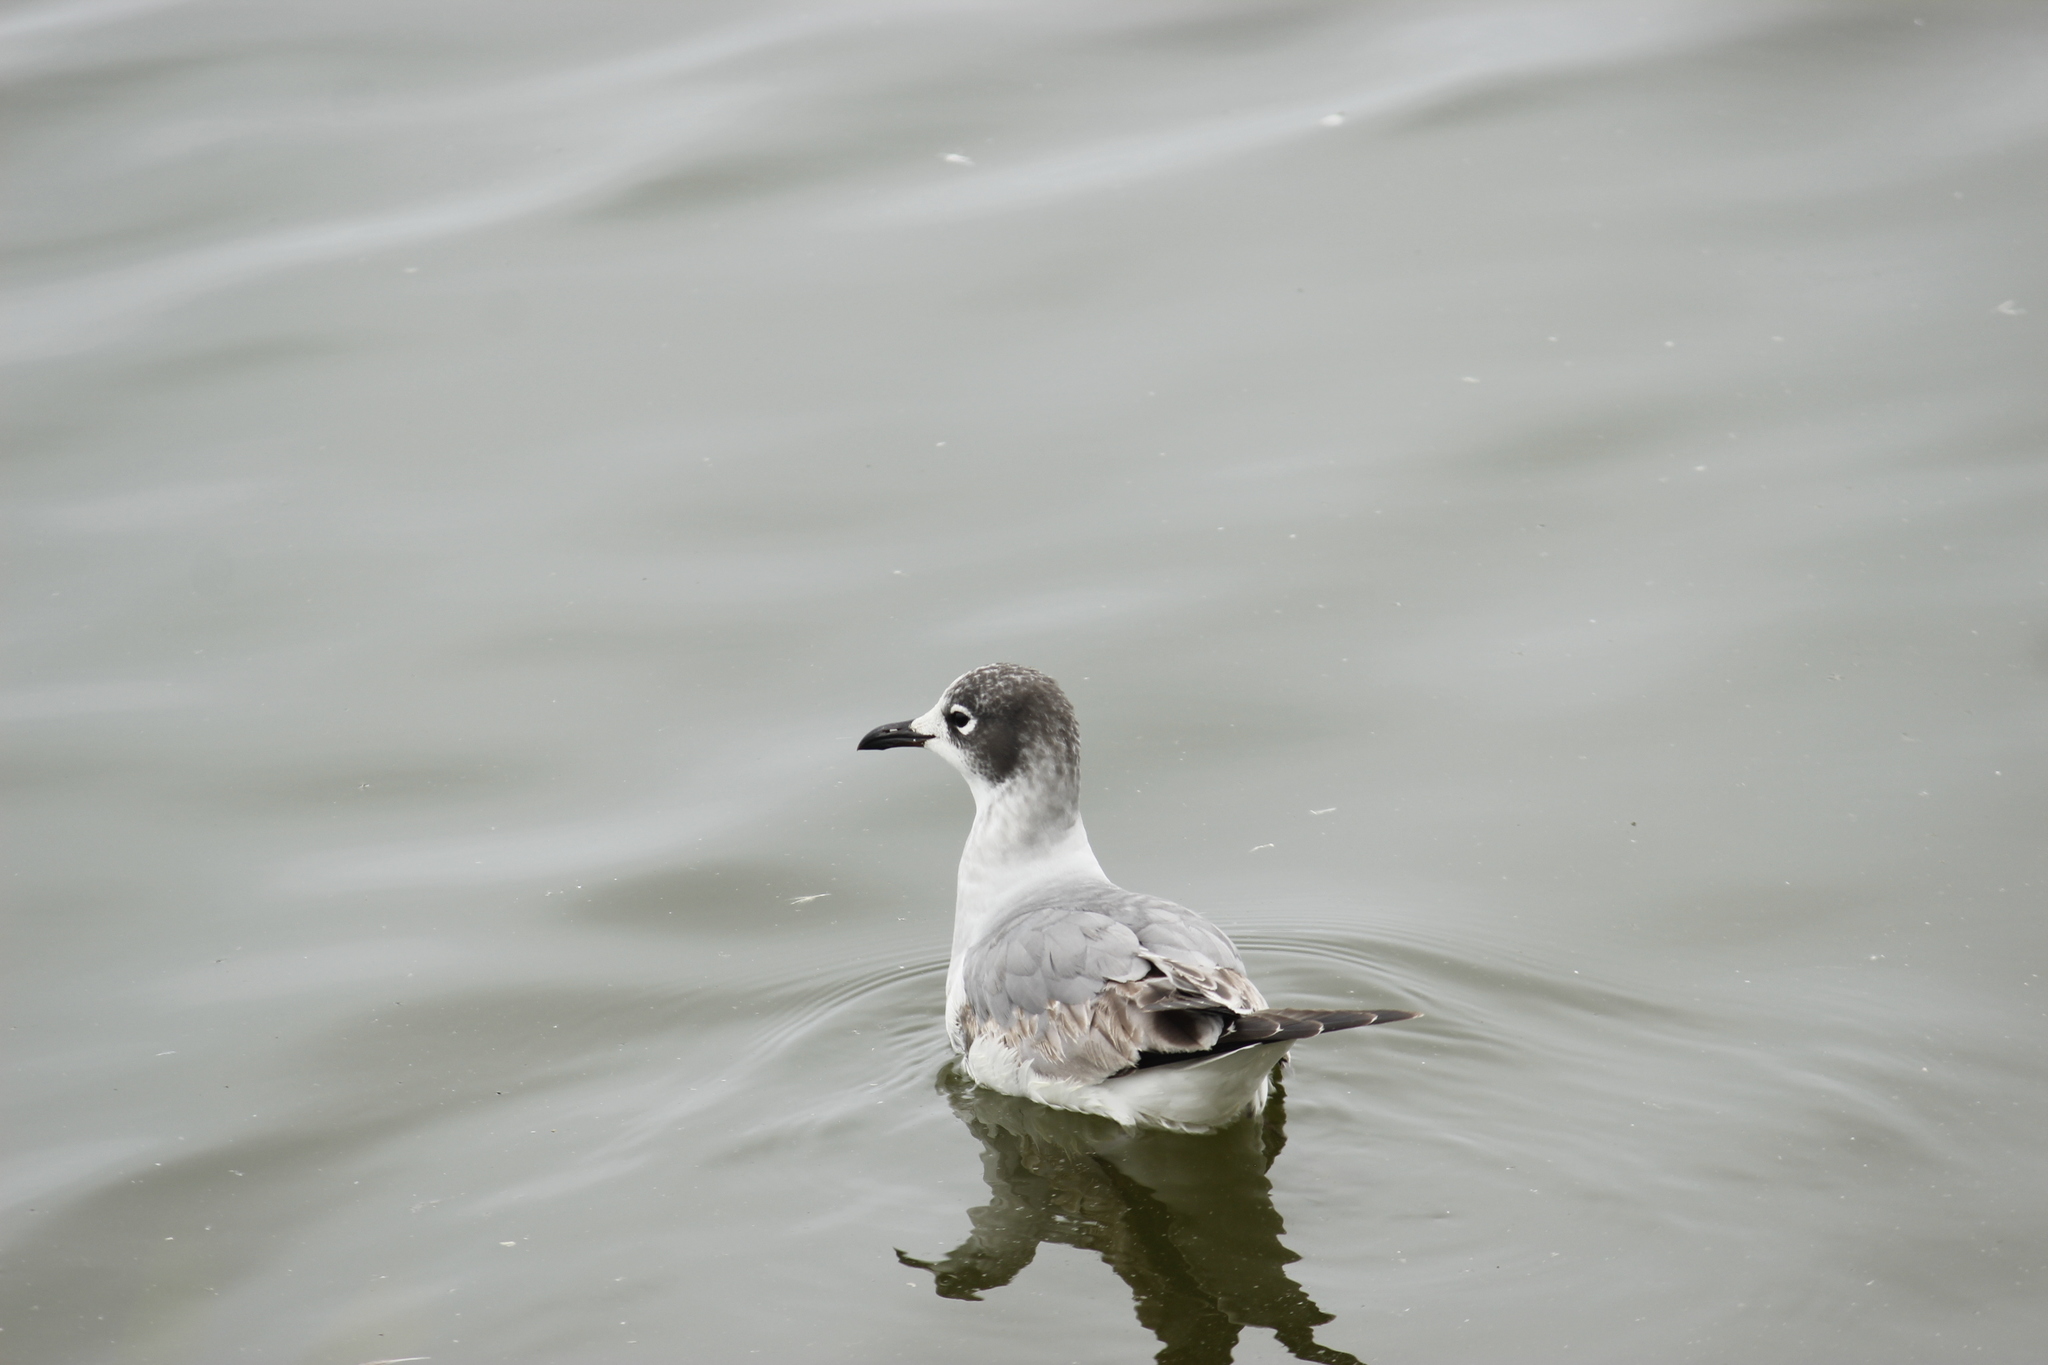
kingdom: Animalia
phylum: Chordata
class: Aves
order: Charadriiformes
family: Laridae
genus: Leucophaeus
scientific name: Leucophaeus pipixcan
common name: Franklin's gull
